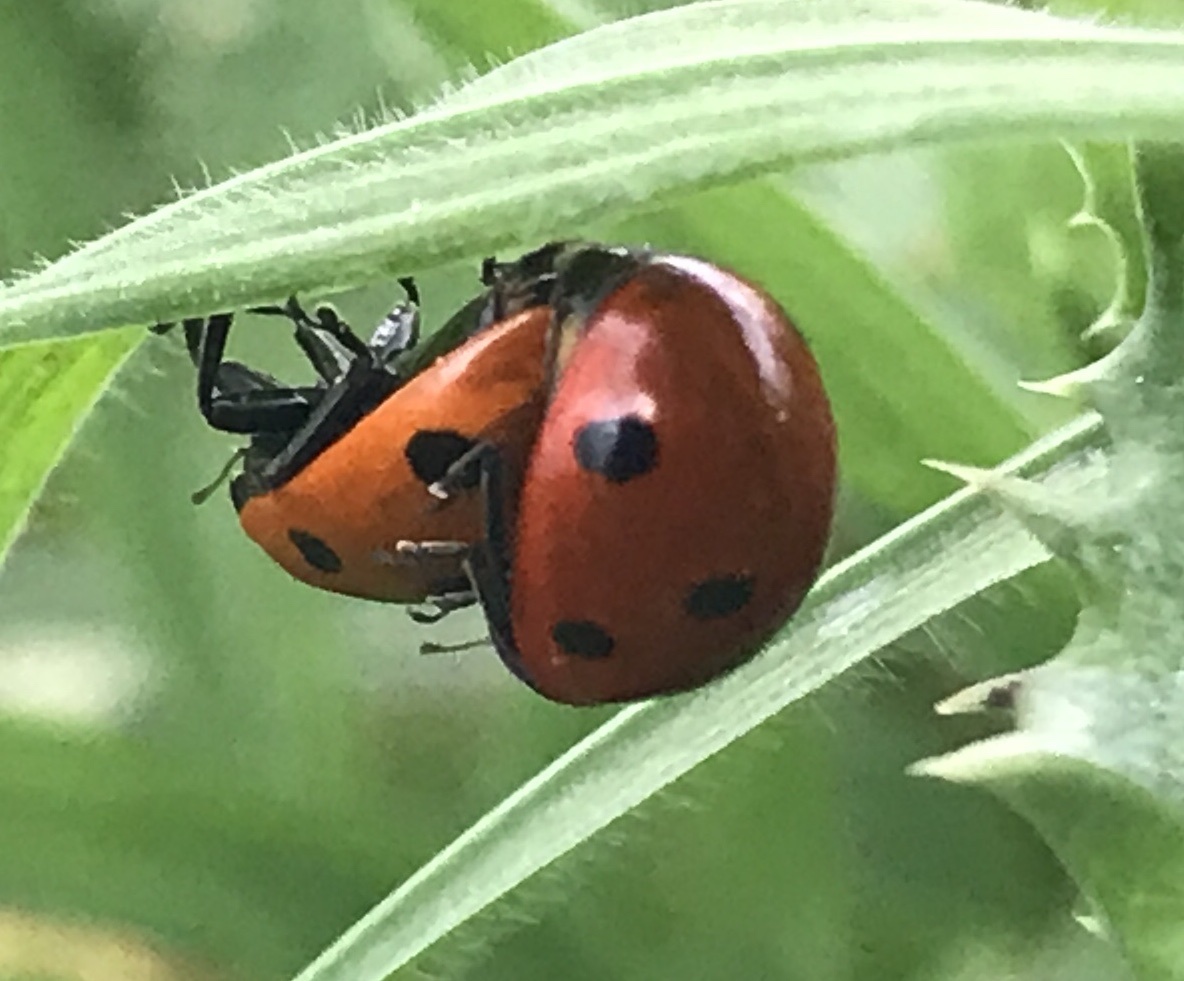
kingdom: Animalia
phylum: Arthropoda
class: Insecta
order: Coleoptera
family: Coccinellidae
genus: Coccinella
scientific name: Coccinella septempunctata
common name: Sevenspotted lady beetle
